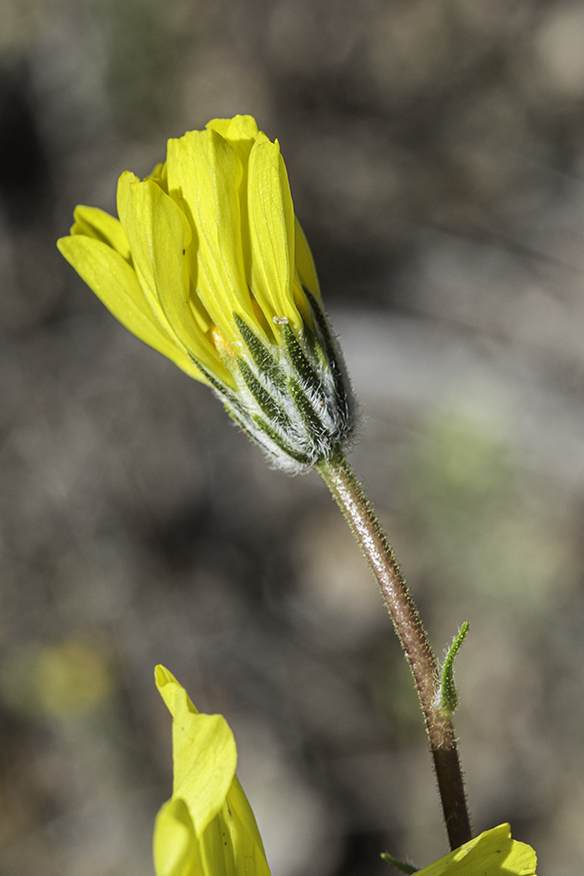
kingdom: Plantae
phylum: Tracheophyta
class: Magnoliopsida
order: Asterales
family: Asteraceae
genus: Geraea
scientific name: Geraea canescens
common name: Desert-gold
